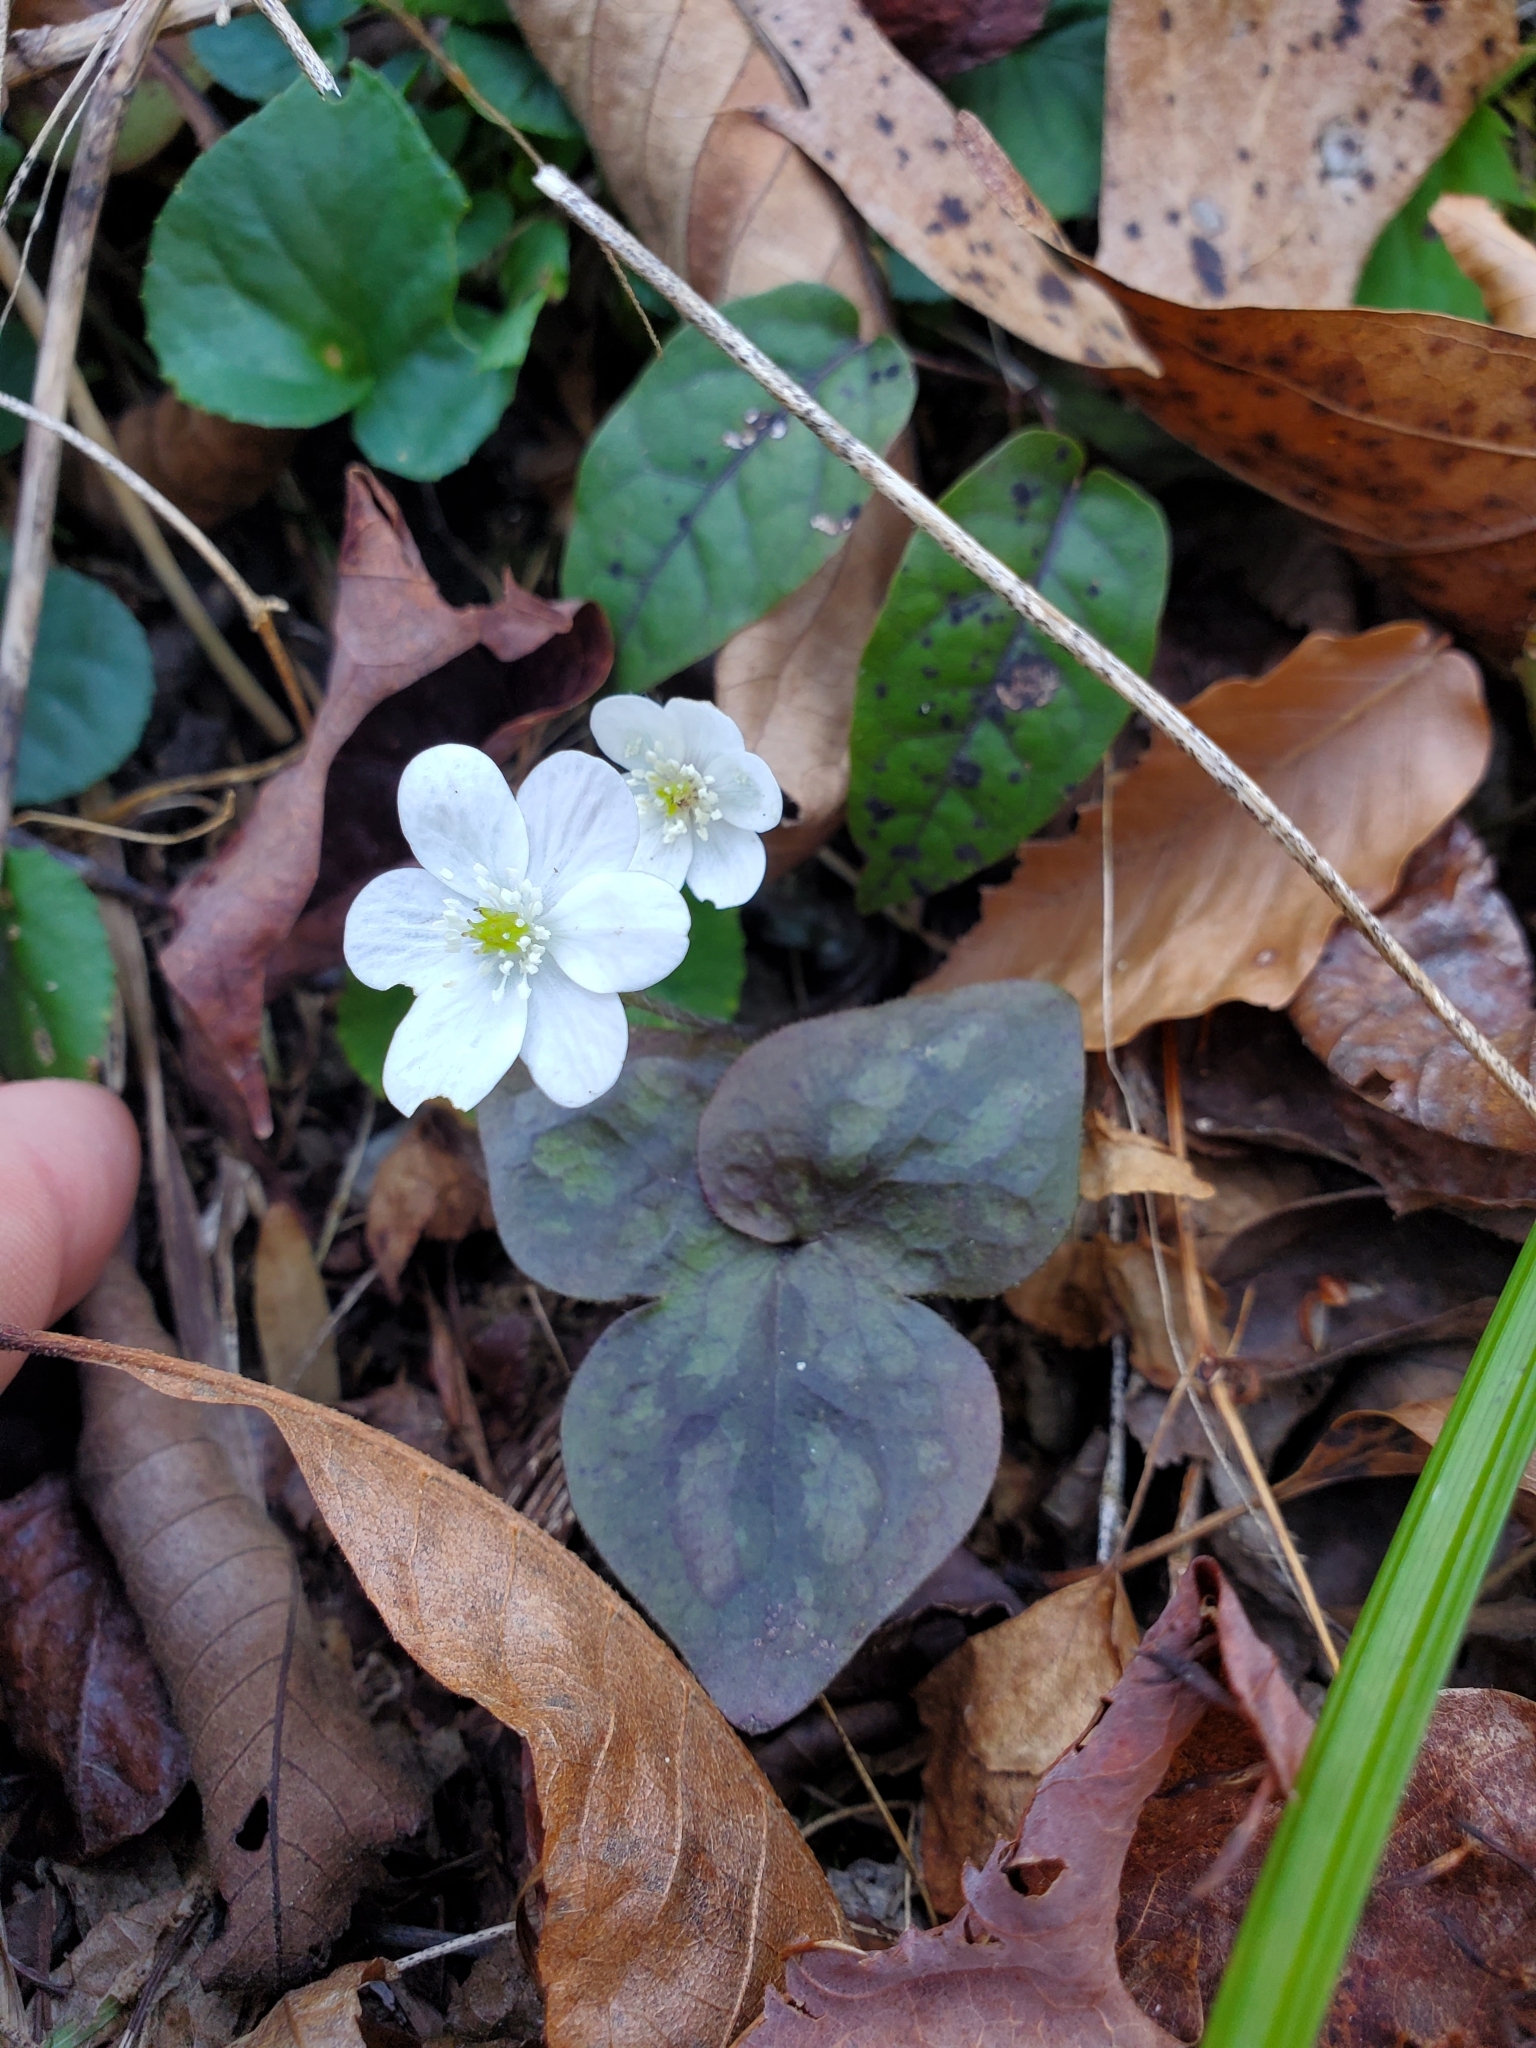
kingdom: Plantae
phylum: Tracheophyta
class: Magnoliopsida
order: Ranunculales
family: Ranunculaceae
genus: Hepatica
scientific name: Hepatica acutiloba
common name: Sharp-lobed hepatica
